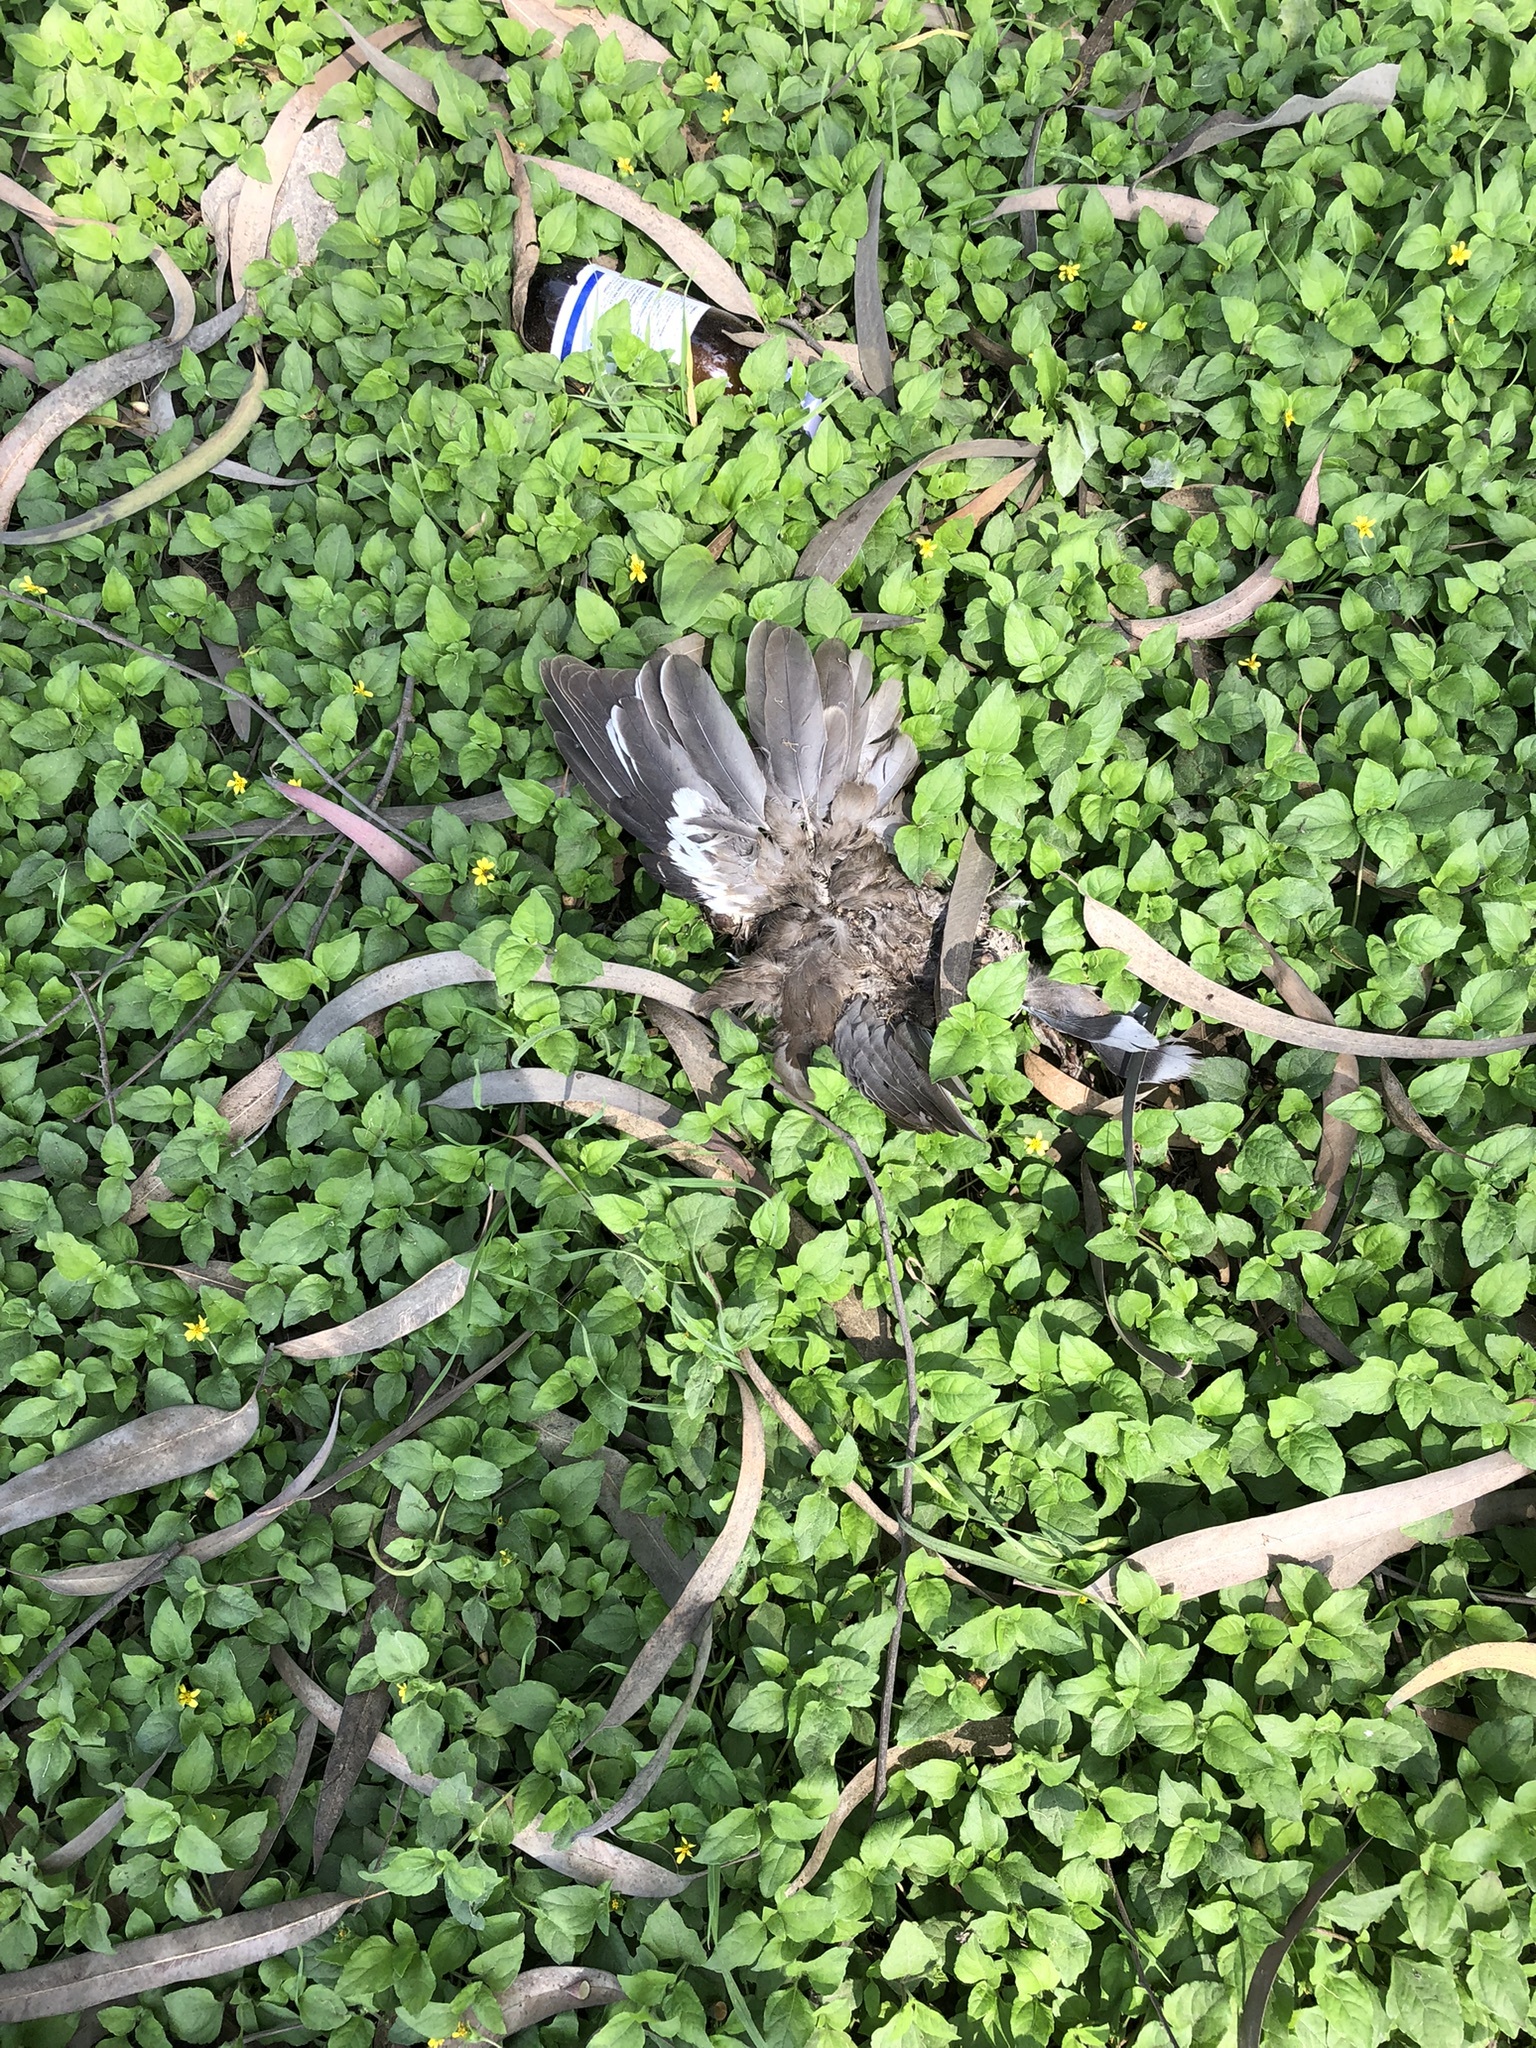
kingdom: Animalia
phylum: Chordata
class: Aves
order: Columbiformes
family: Columbidae
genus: Zenaida
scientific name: Zenaida meloda
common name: West peruvian dove
